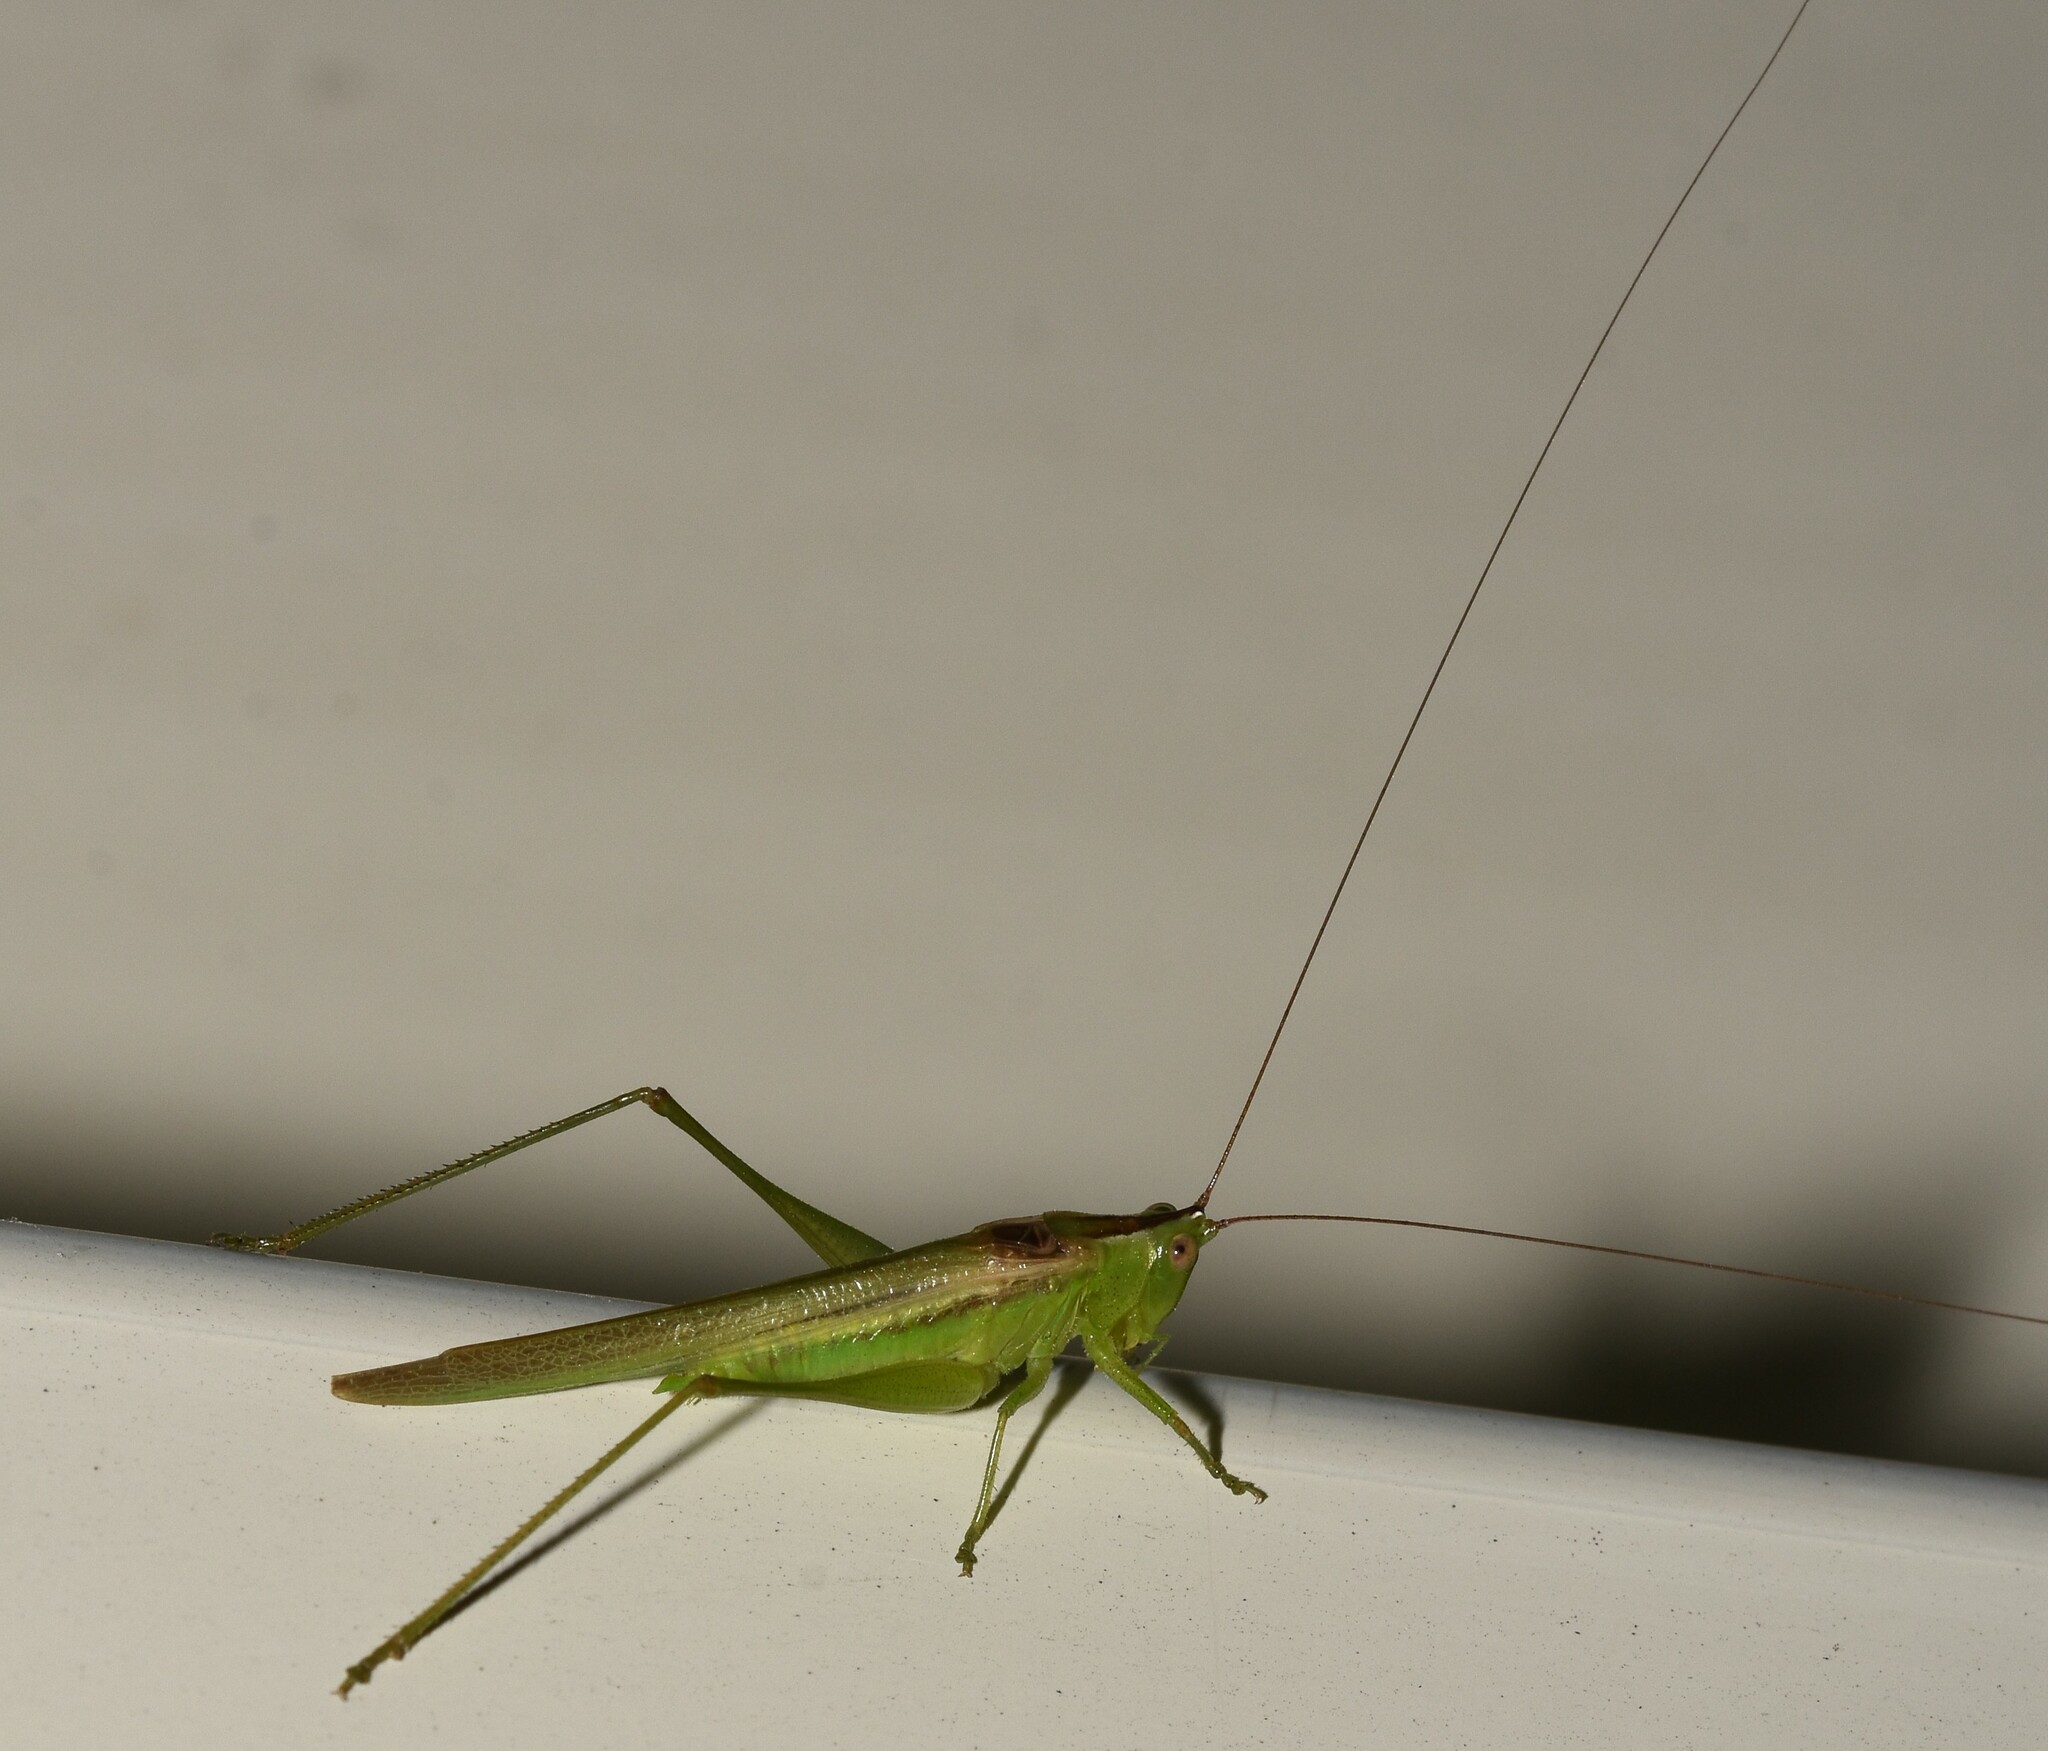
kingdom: Animalia
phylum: Arthropoda
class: Insecta
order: Orthoptera
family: Tettigoniidae
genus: Conocephalus
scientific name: Conocephalus fasciatus
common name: Slender meadow katydid
